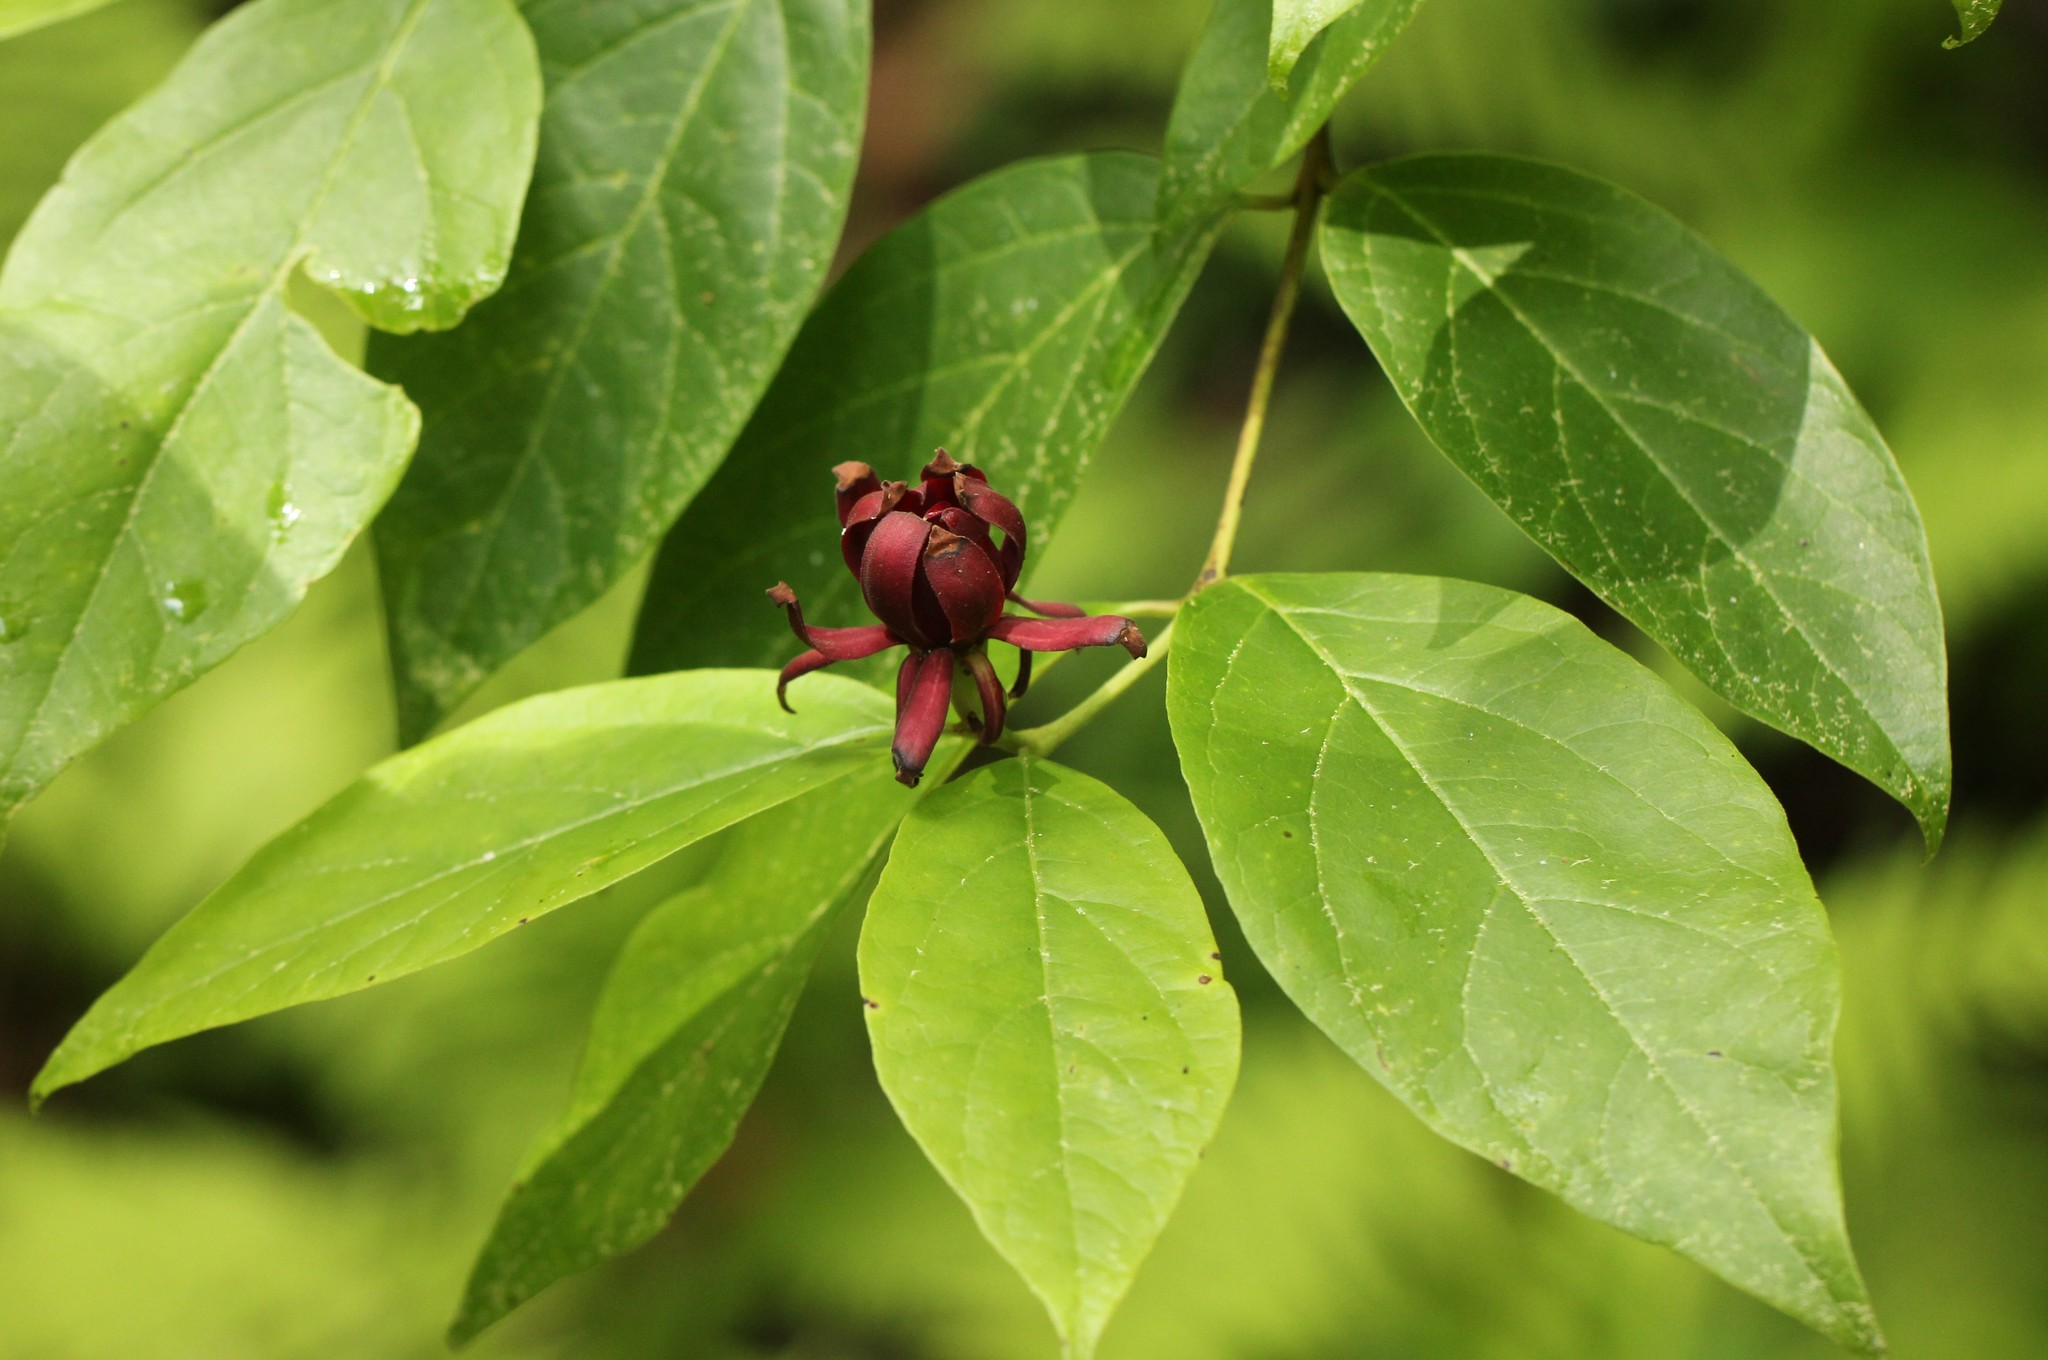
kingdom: Plantae
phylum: Tracheophyta
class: Magnoliopsida
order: Laurales
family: Calycanthaceae
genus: Calycanthus
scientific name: Calycanthus floridus
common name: Carolina-allspice
